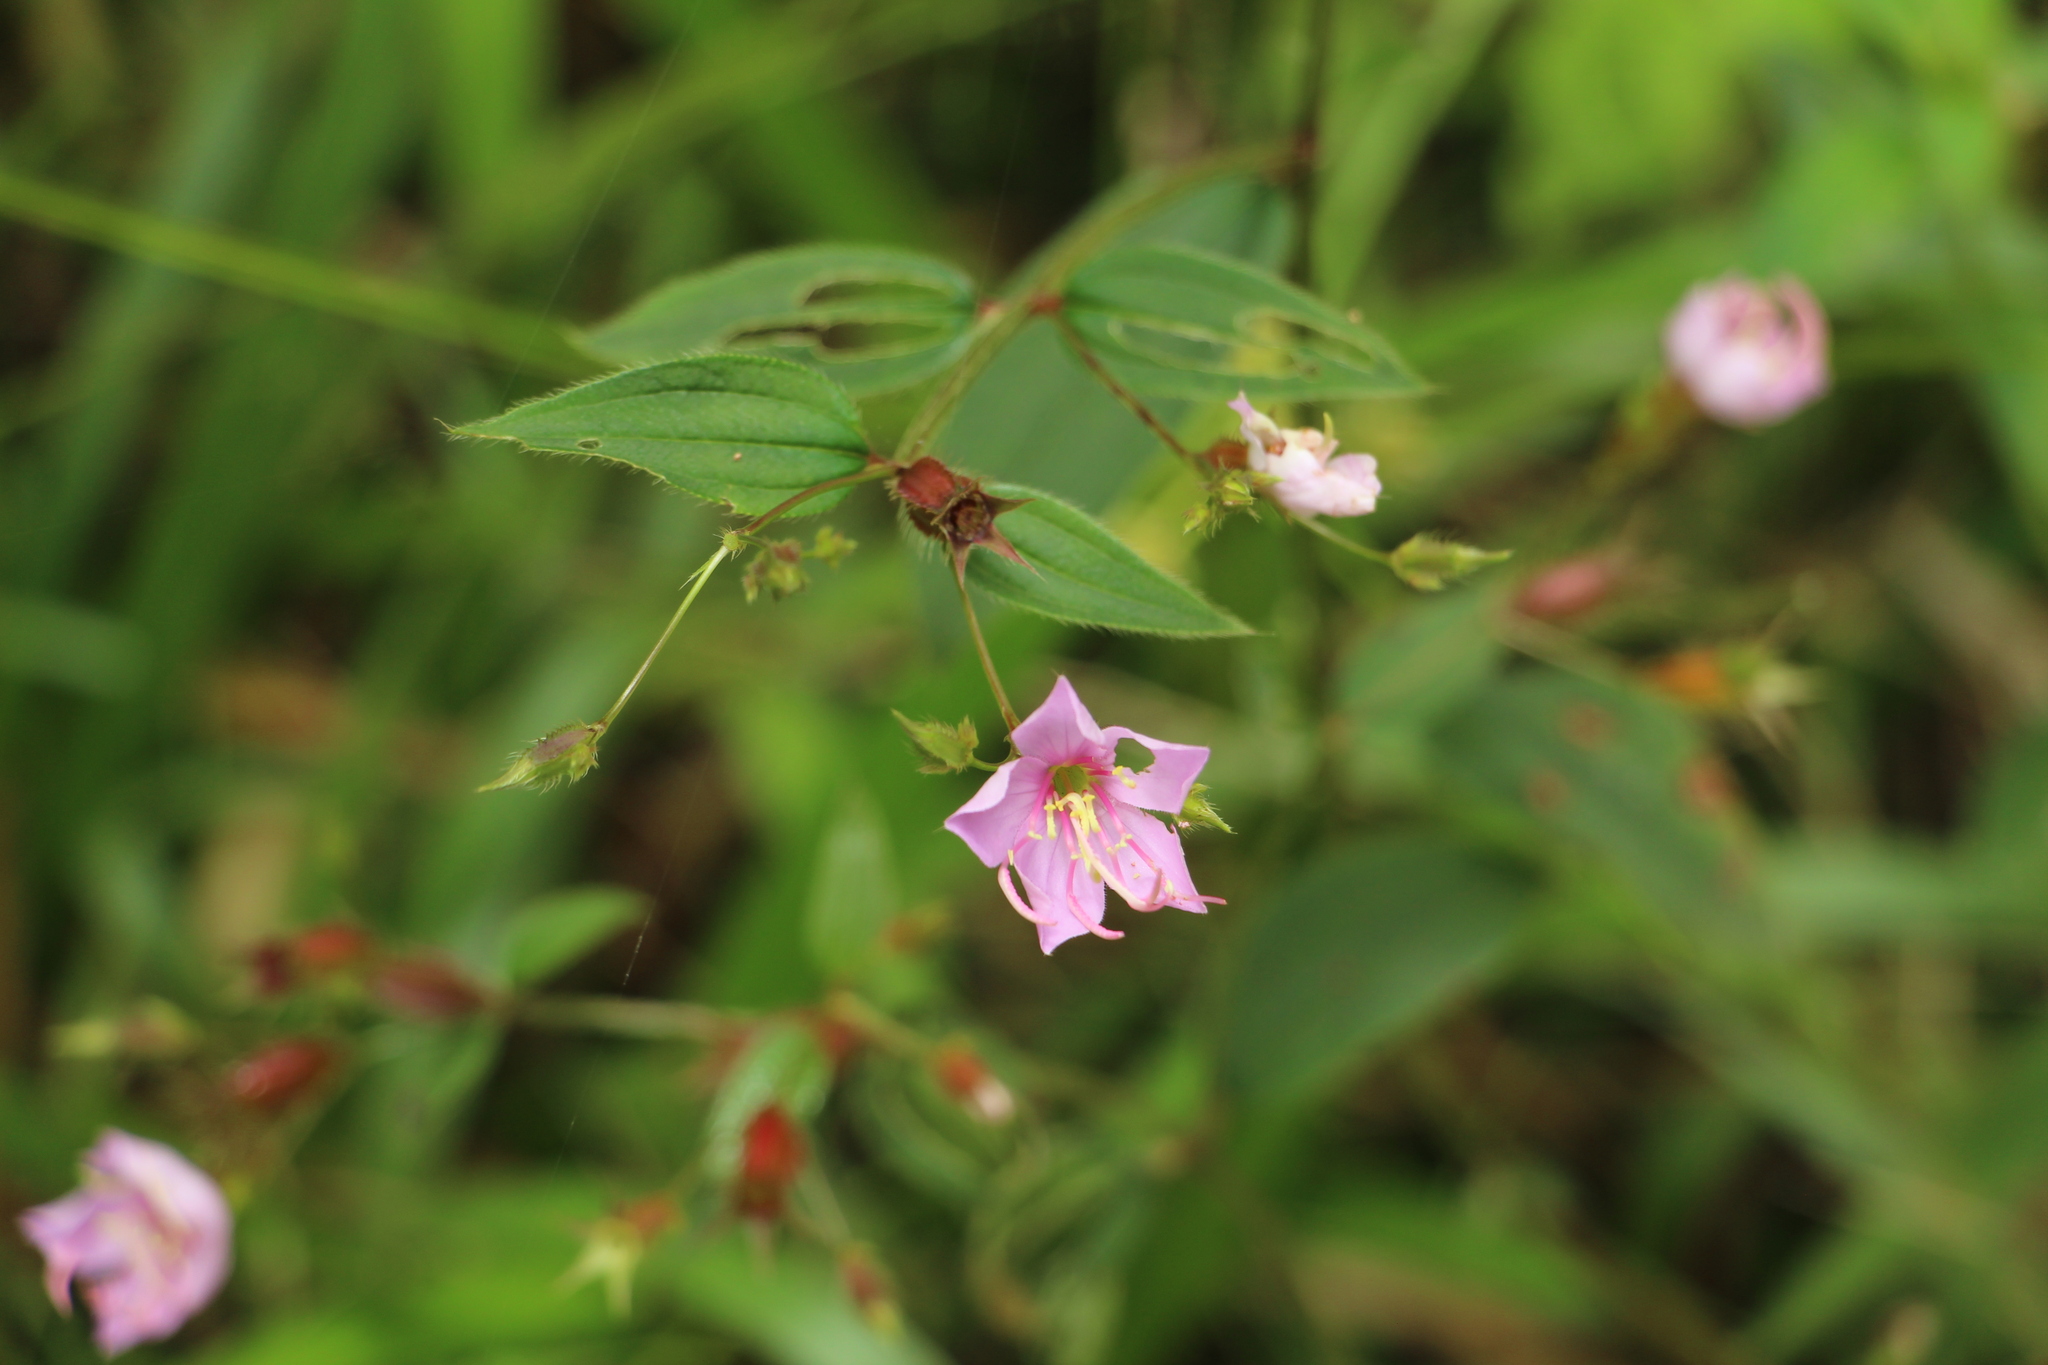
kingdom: Plantae
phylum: Tracheophyta
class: Magnoliopsida
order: Myrtales
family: Melastomataceae
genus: Pterogastra
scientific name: Pterogastra divaricata
